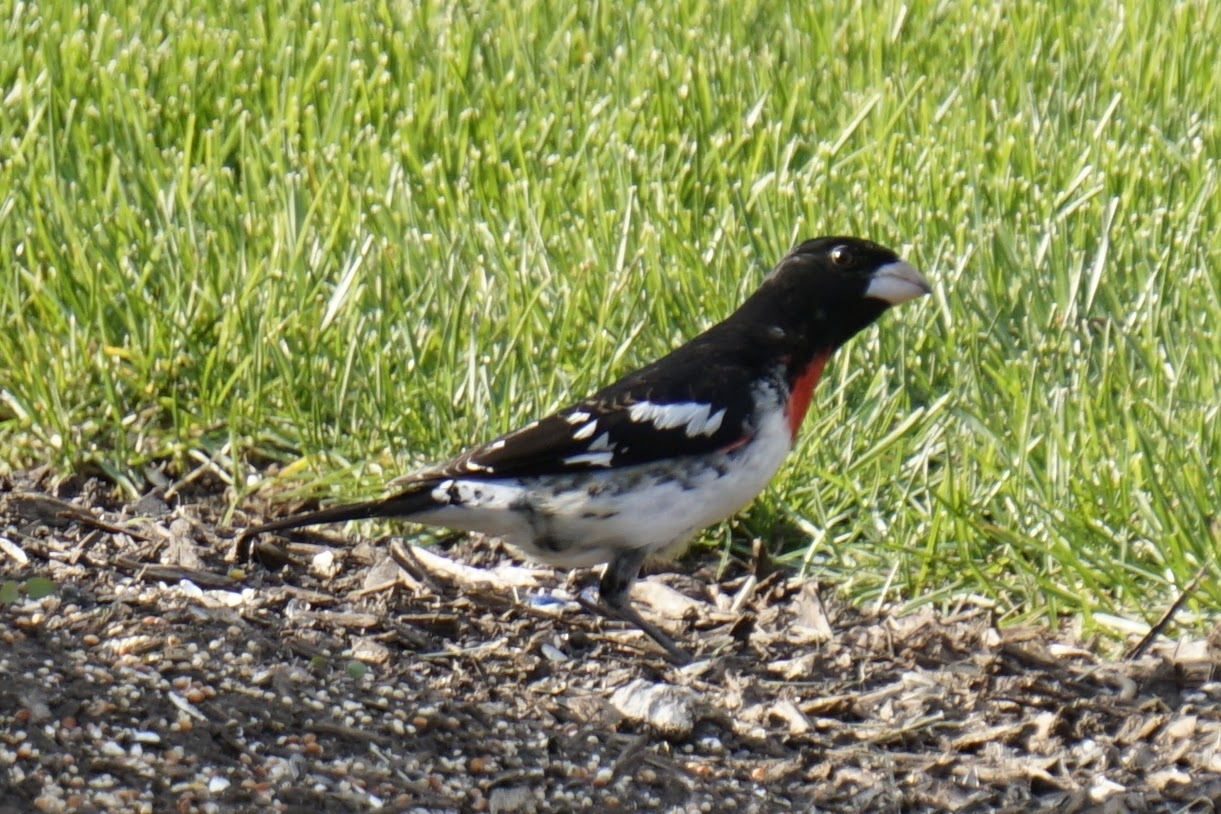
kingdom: Animalia
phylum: Chordata
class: Aves
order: Passeriformes
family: Cardinalidae
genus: Pheucticus
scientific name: Pheucticus ludovicianus
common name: Rose-breasted grosbeak
